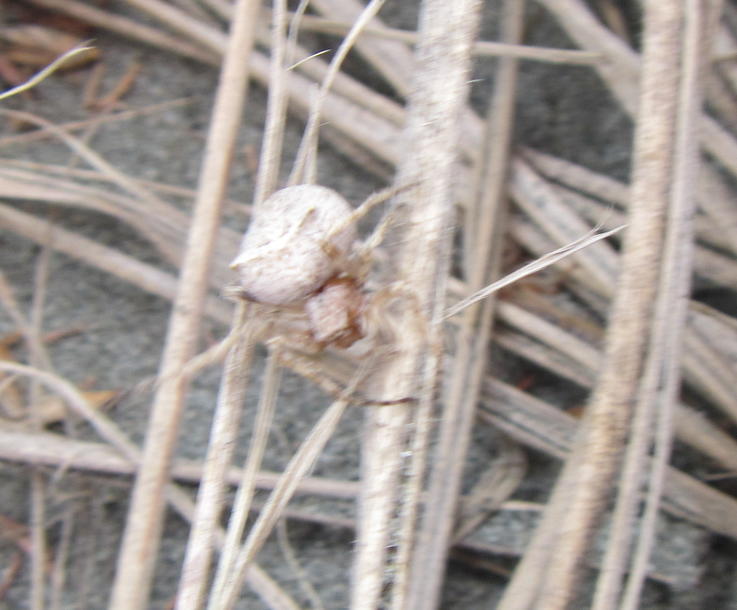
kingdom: Animalia
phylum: Arthropoda
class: Arachnida
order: Araneae
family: Araneidae
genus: Novakiella
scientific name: Novakiella trituberculosa
